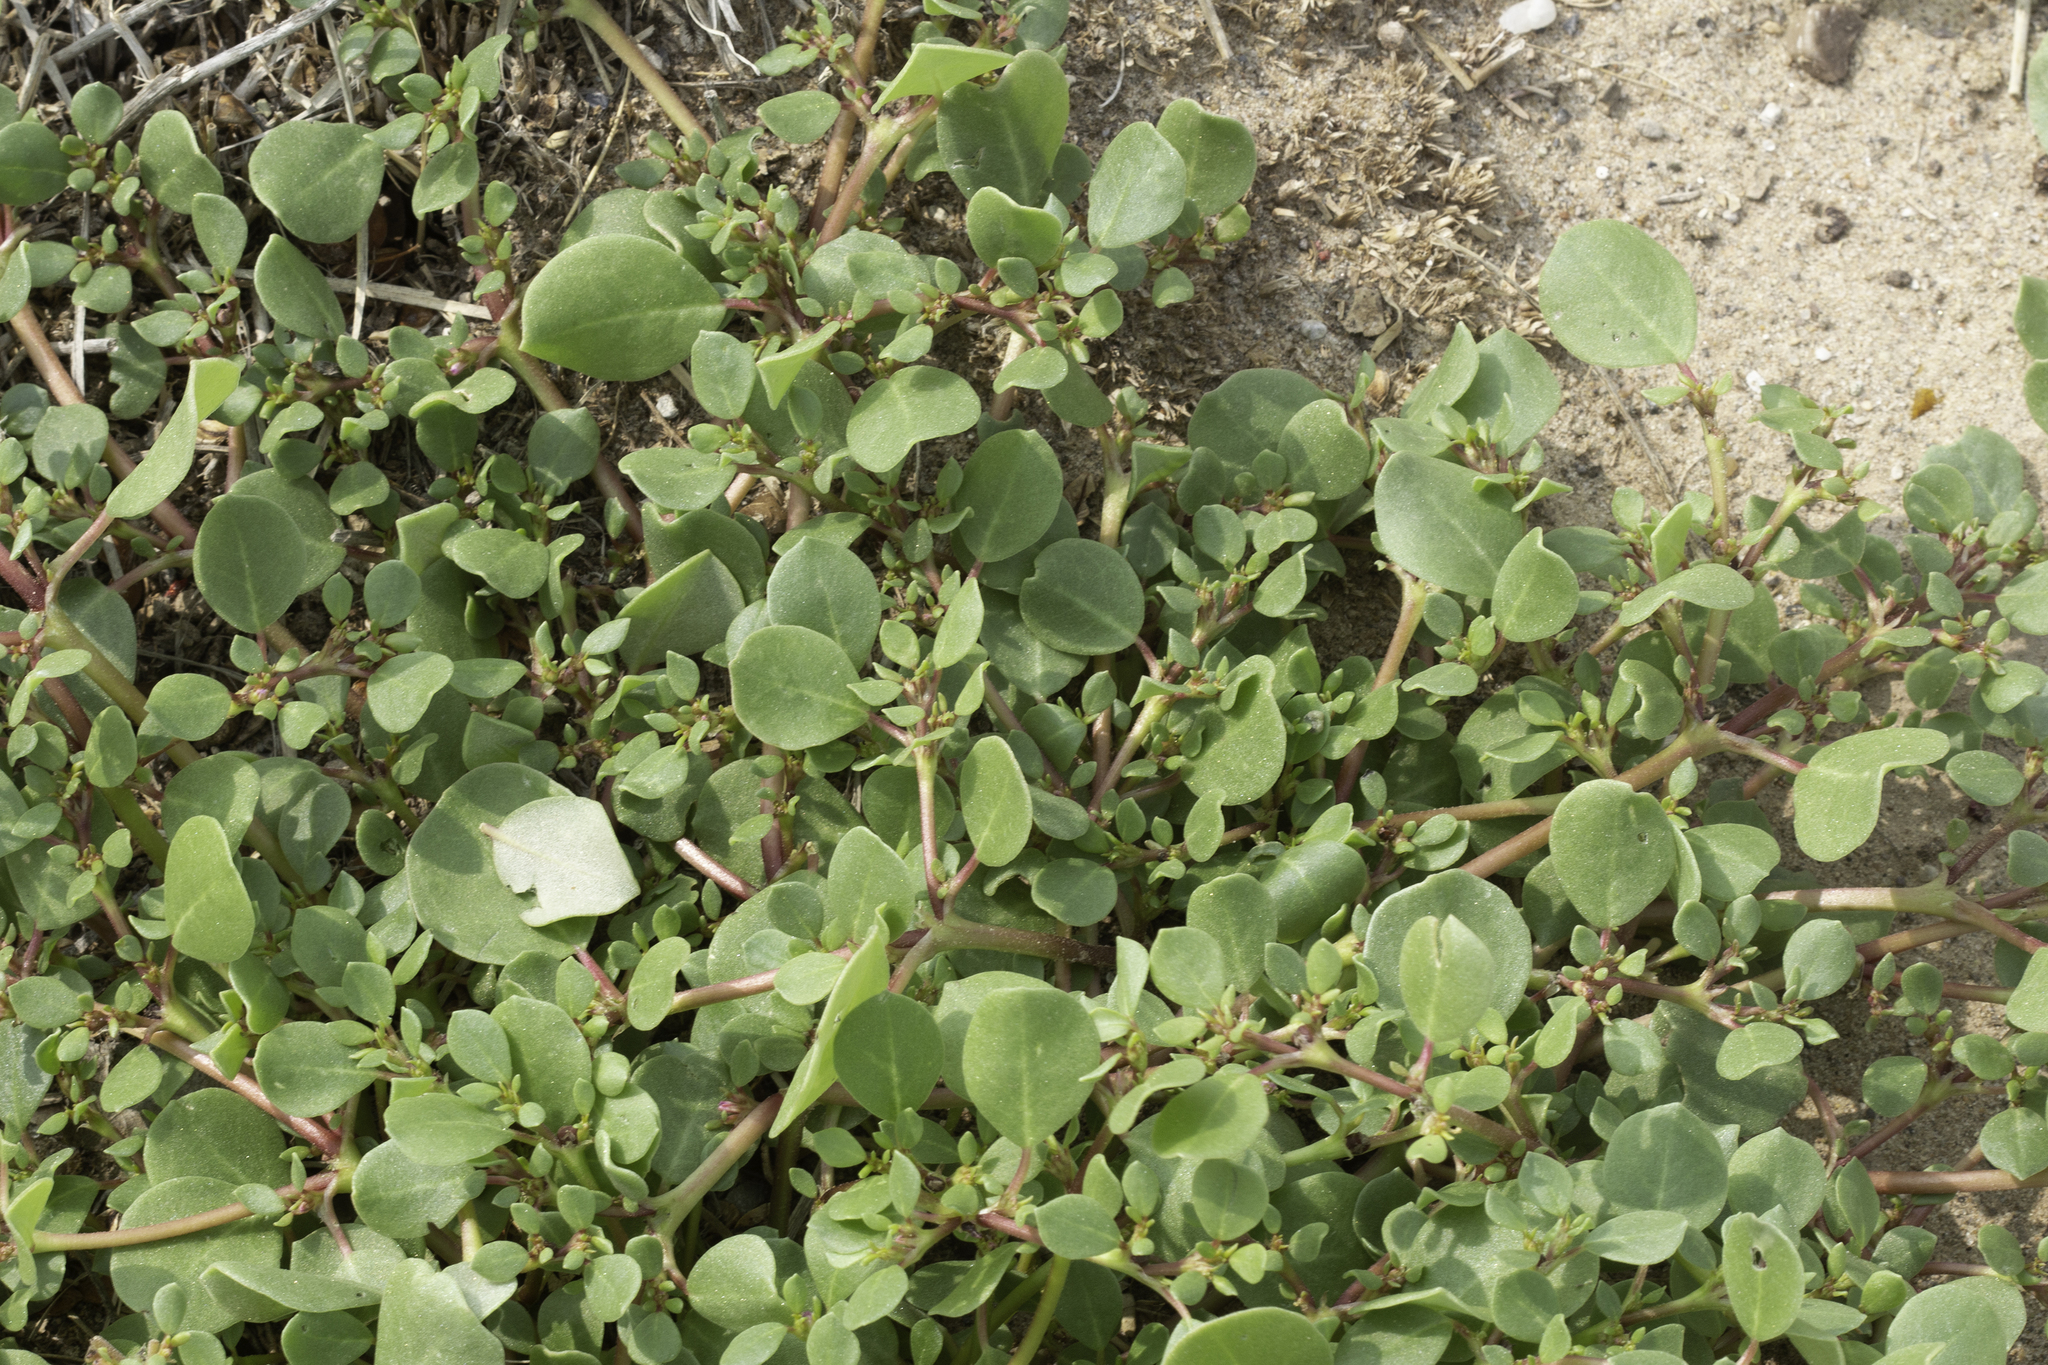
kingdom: Plantae
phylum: Tracheophyta
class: Magnoliopsida
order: Caryophyllales
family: Aizoaceae
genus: Trianthema
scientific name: Trianthema portulacastrum
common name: Desert horsepurslane
